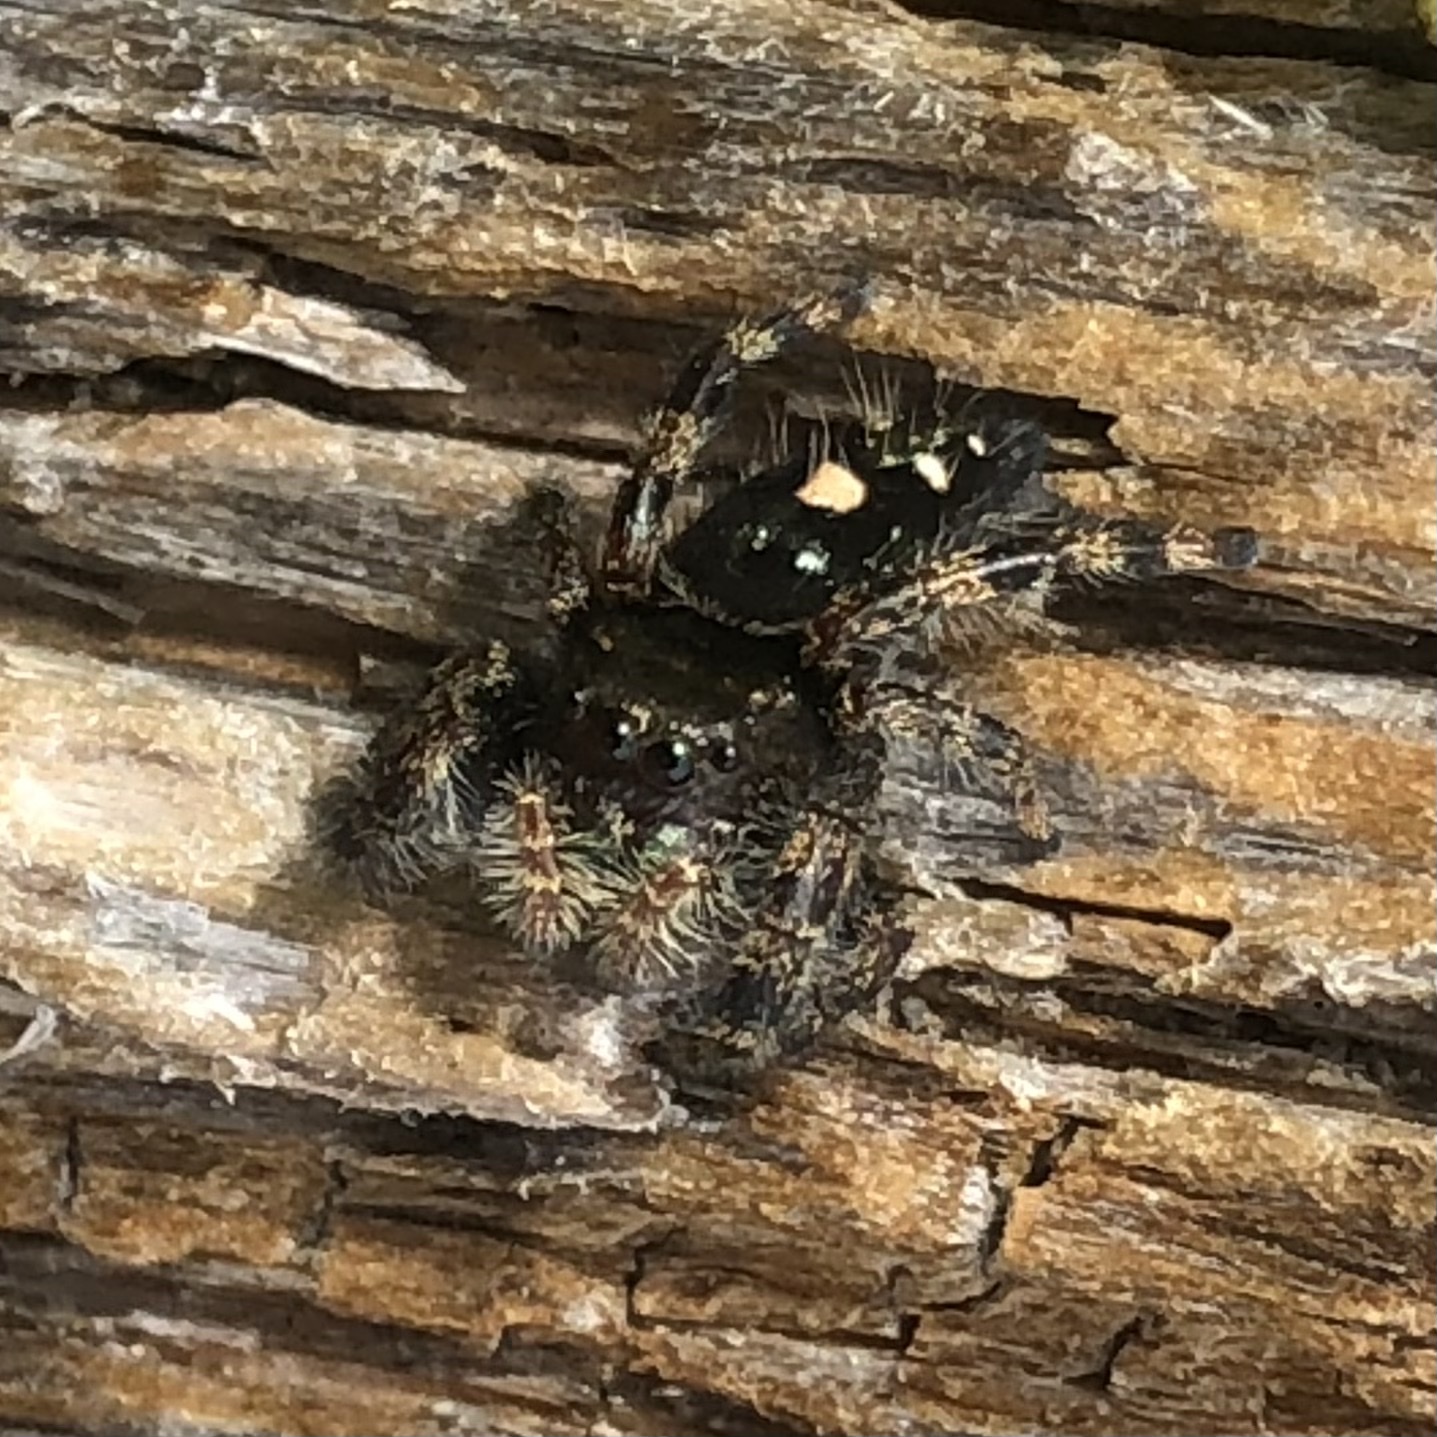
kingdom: Animalia
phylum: Arthropoda
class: Arachnida
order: Araneae
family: Salticidae
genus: Phidippus
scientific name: Phidippus audax
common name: Bold jumper
